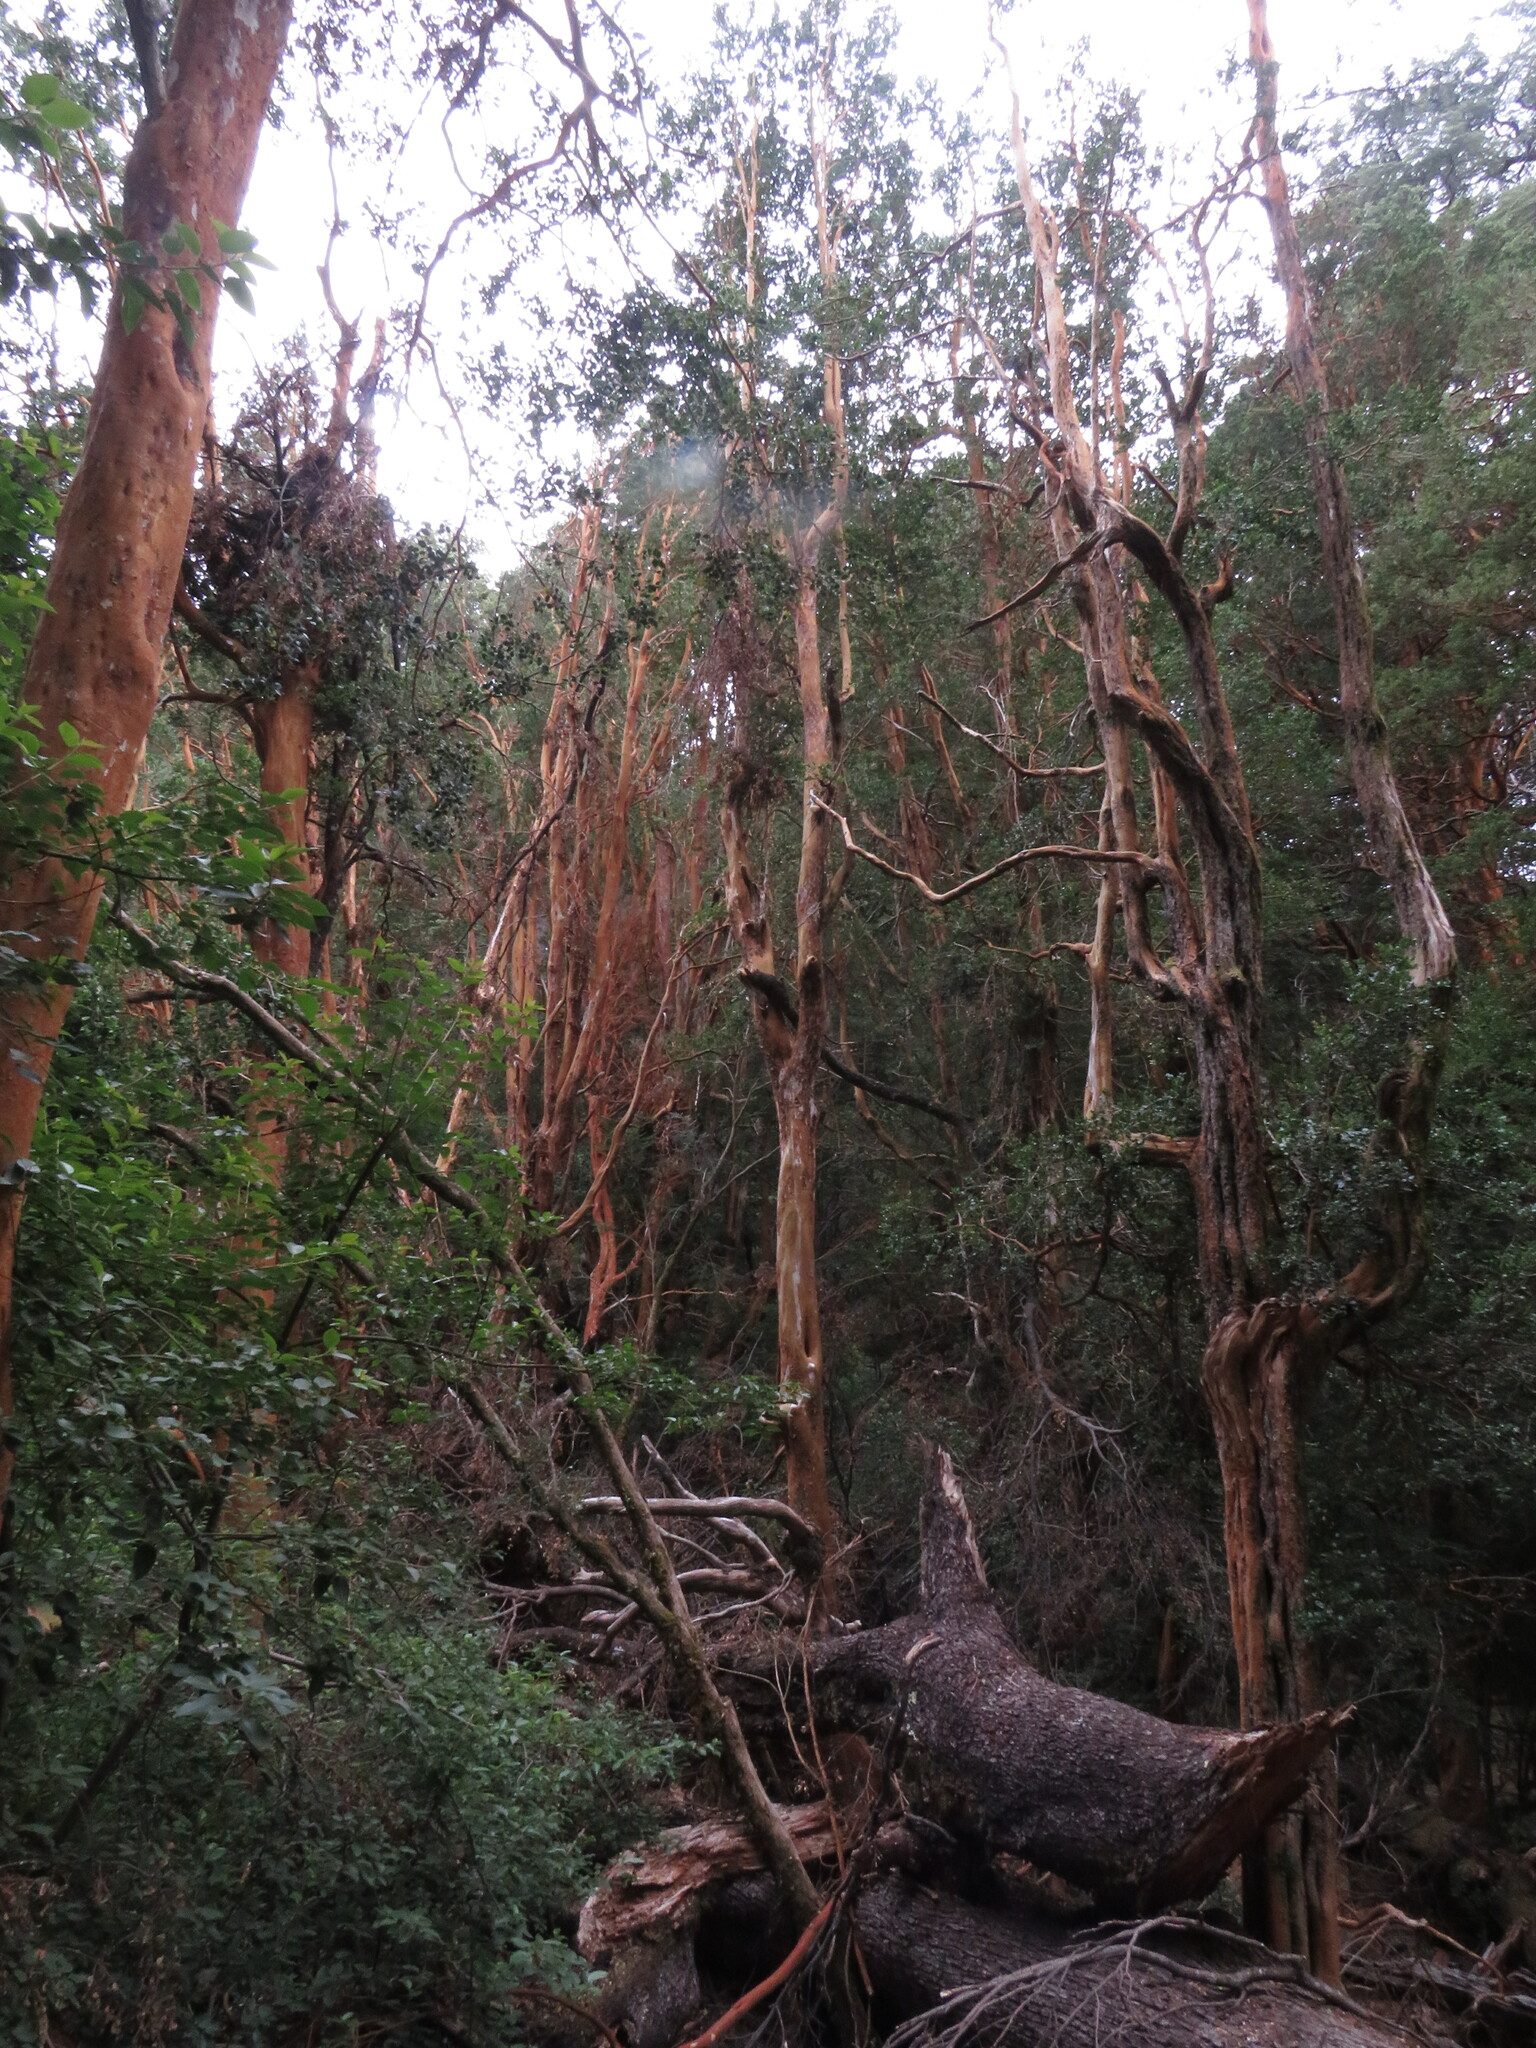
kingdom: Plantae
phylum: Tracheophyta
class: Magnoliopsida
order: Myrtales
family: Myrtaceae
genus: Luma
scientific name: Luma apiculata
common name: Chilean myrtle
